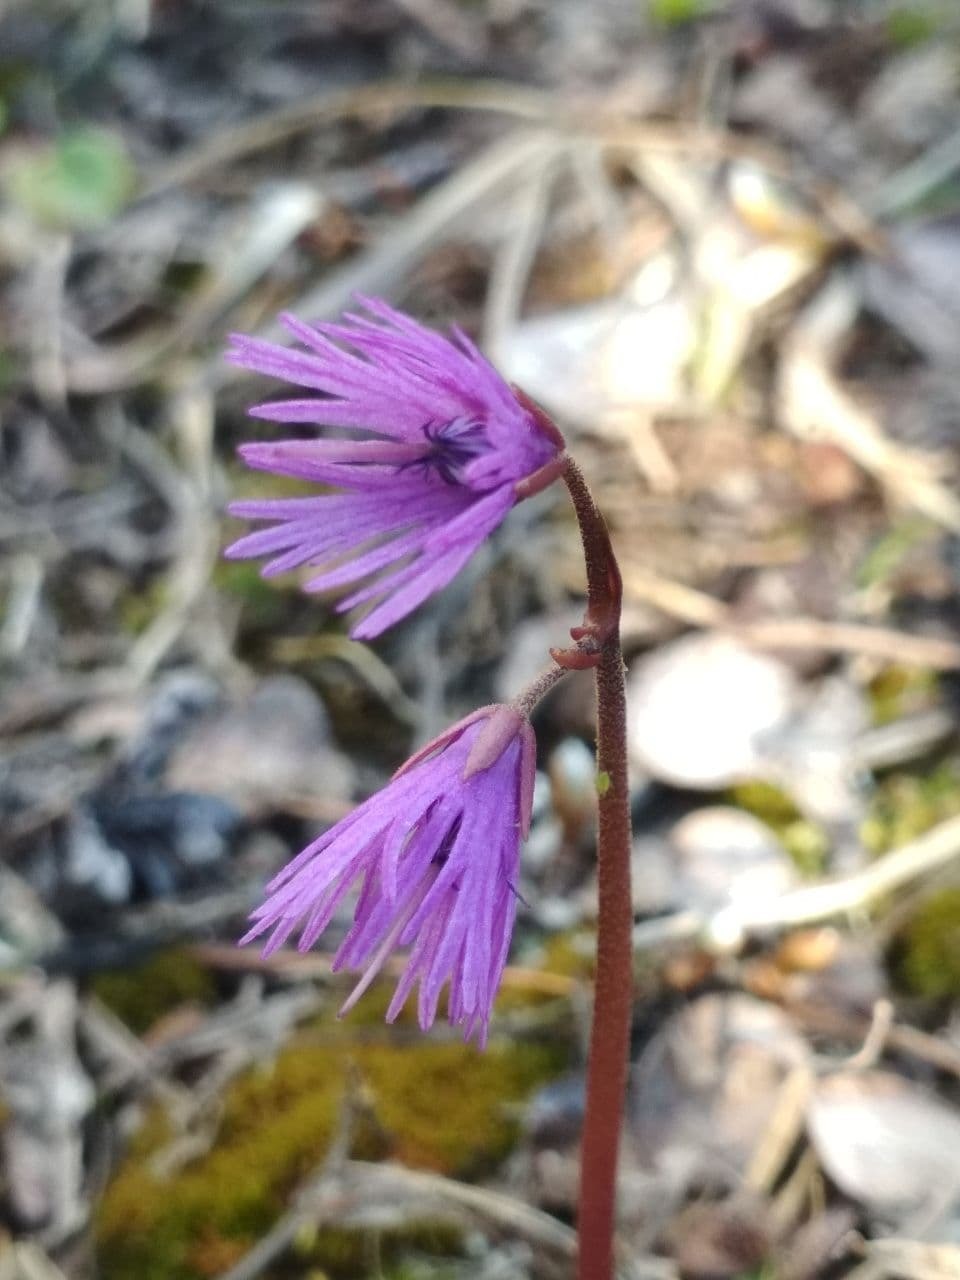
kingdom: Plantae
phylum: Tracheophyta
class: Magnoliopsida
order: Ericales
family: Primulaceae
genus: Soldanella
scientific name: Soldanella alpina
